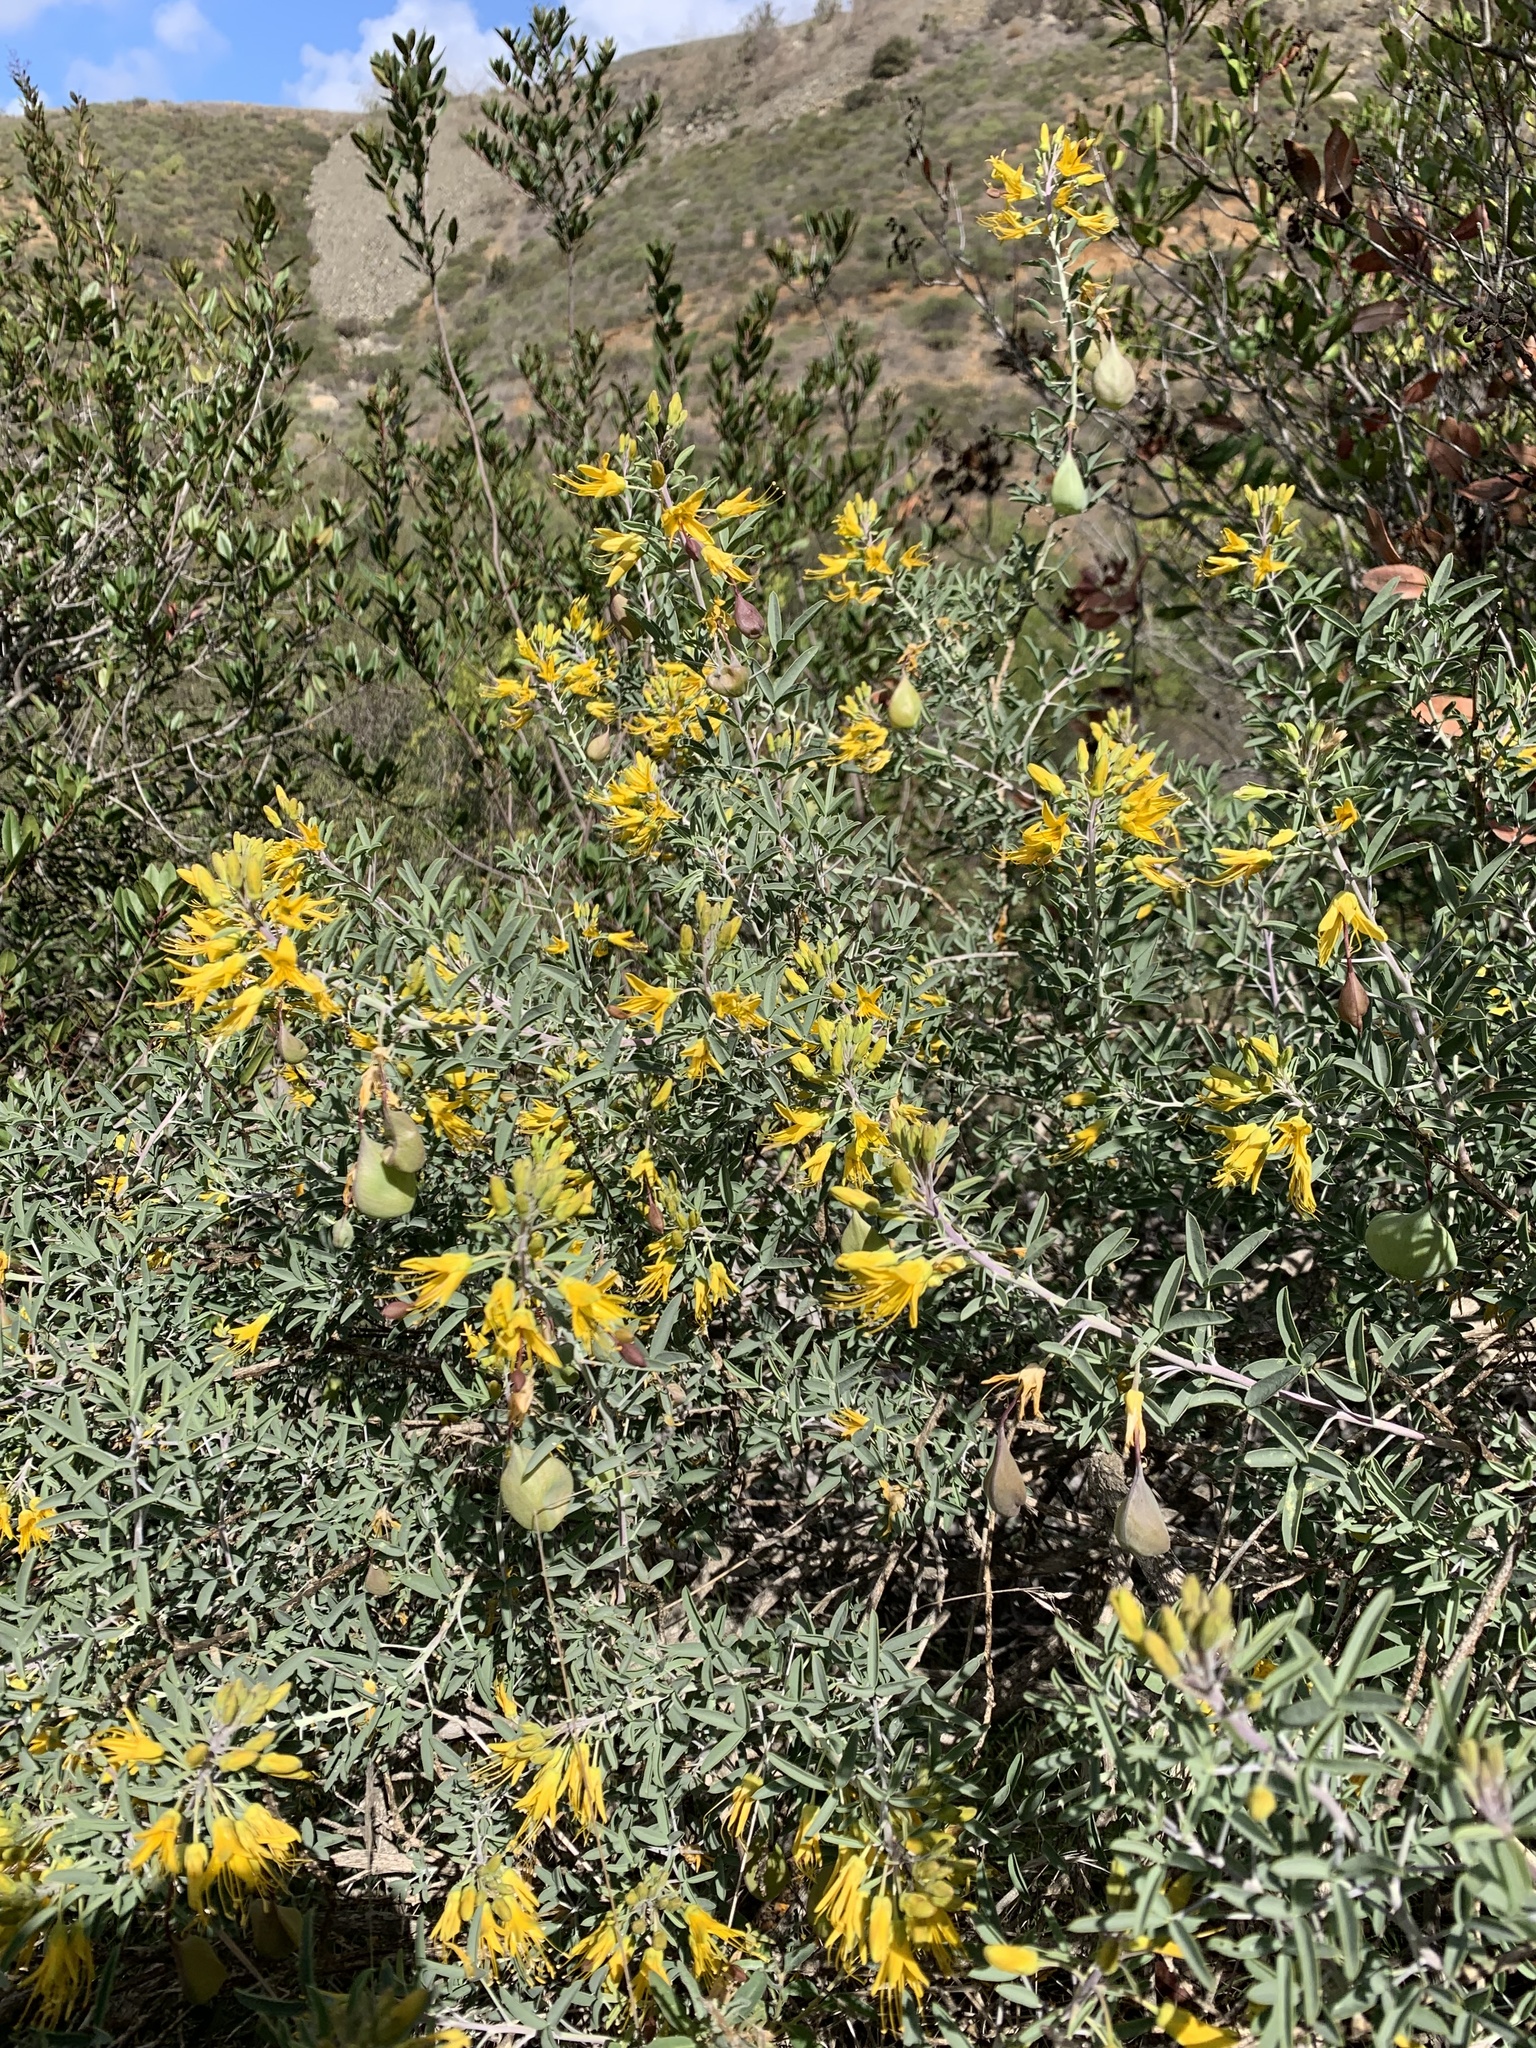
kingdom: Plantae
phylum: Tracheophyta
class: Magnoliopsida
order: Brassicales
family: Cleomaceae
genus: Cleomella
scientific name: Cleomella arborea
